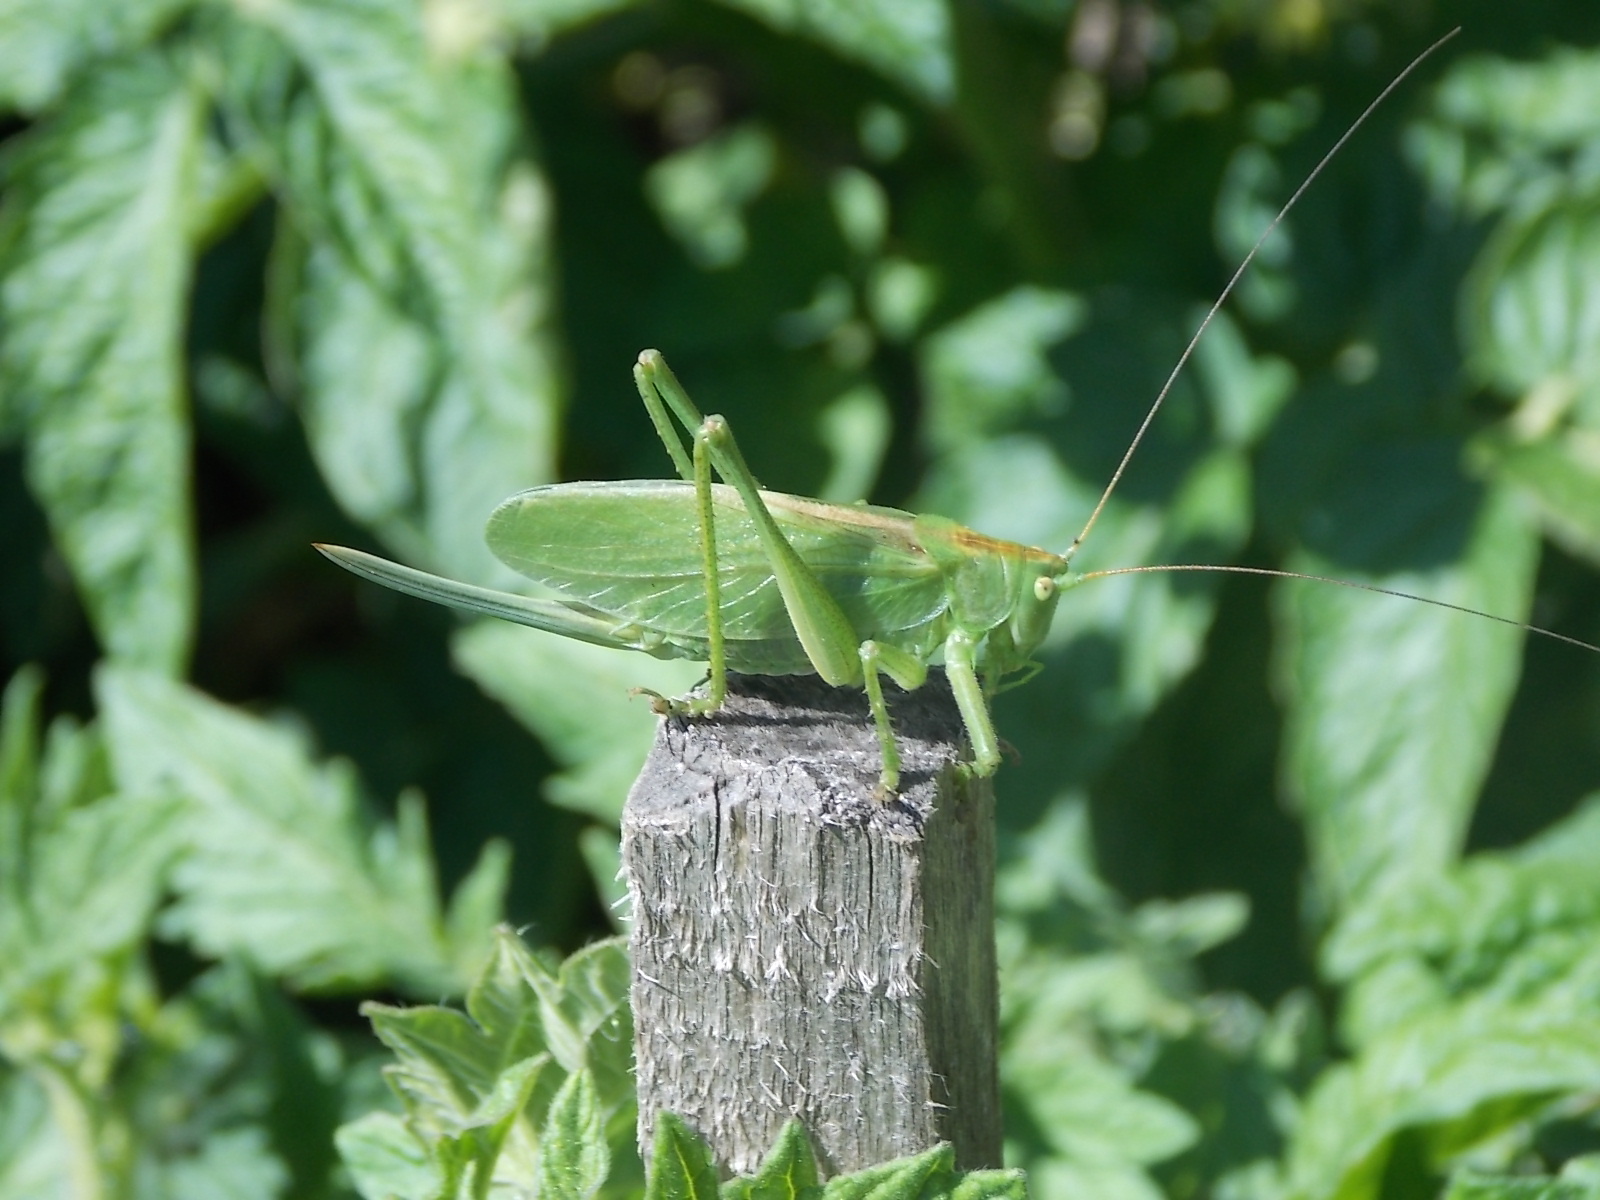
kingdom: Animalia
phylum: Arthropoda
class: Insecta
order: Orthoptera
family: Tettigoniidae
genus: Tettigonia
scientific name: Tettigonia cantans
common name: Upland green bush-cricket
